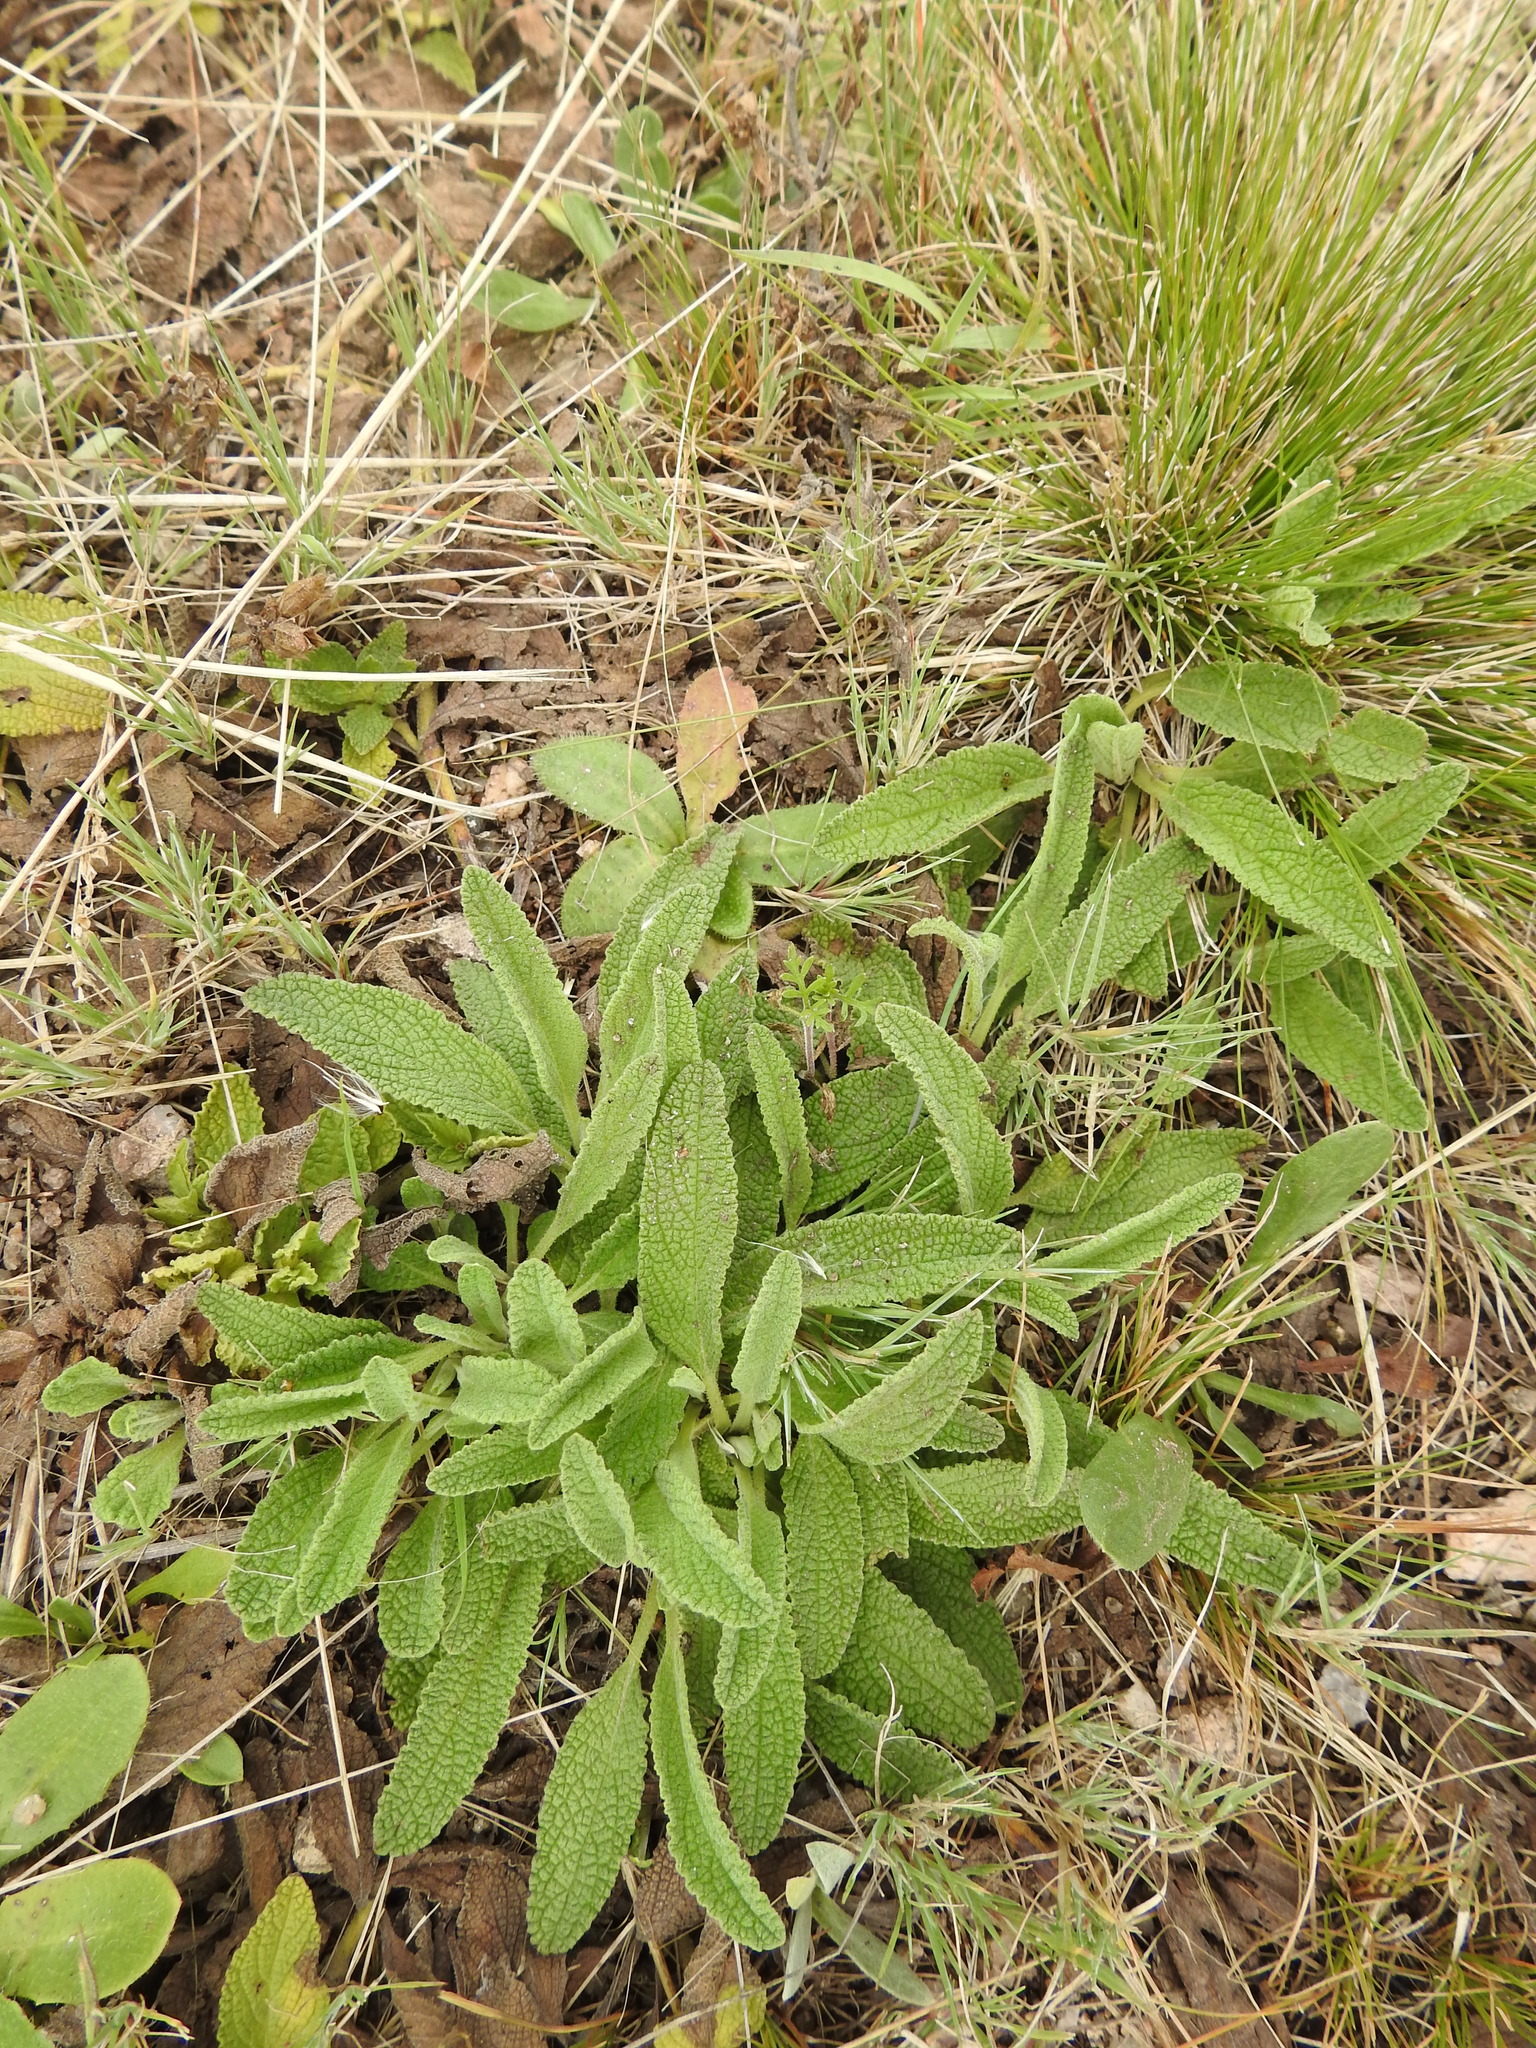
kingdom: Plantae
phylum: Tracheophyta
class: Magnoliopsida
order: Lamiales
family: Lamiaceae
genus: Lepechinia
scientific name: Lepechinia meyenii
